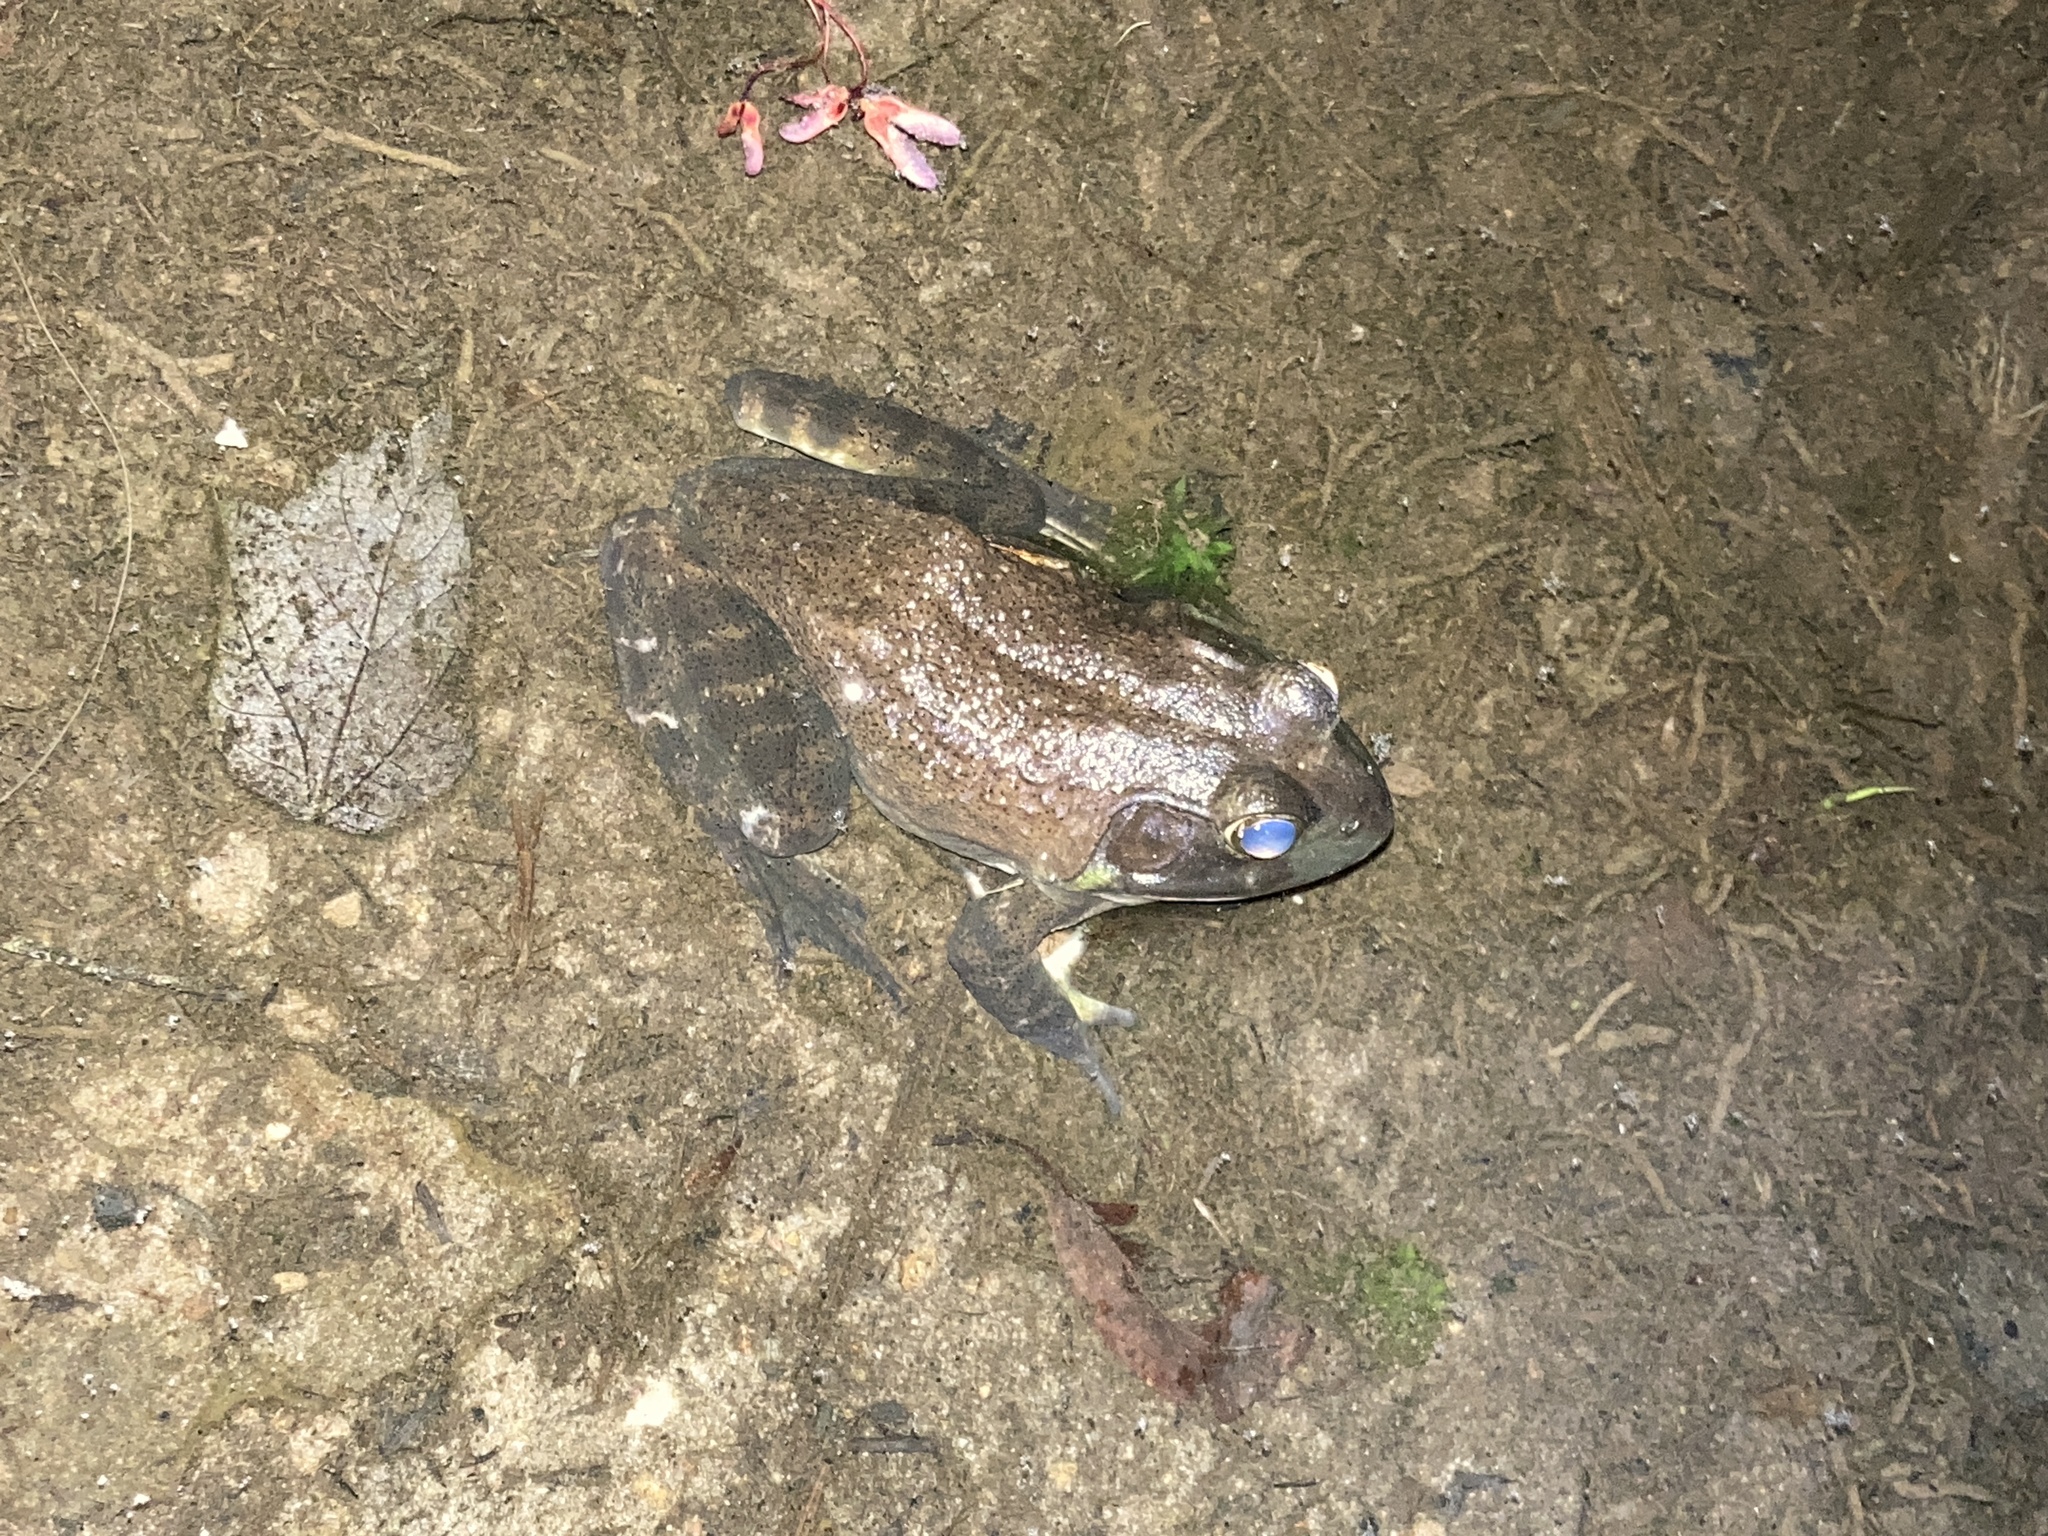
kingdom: Animalia
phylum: Chordata
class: Amphibia
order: Anura
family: Ranidae
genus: Lithobates
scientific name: Lithobates catesbeianus
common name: American bullfrog
